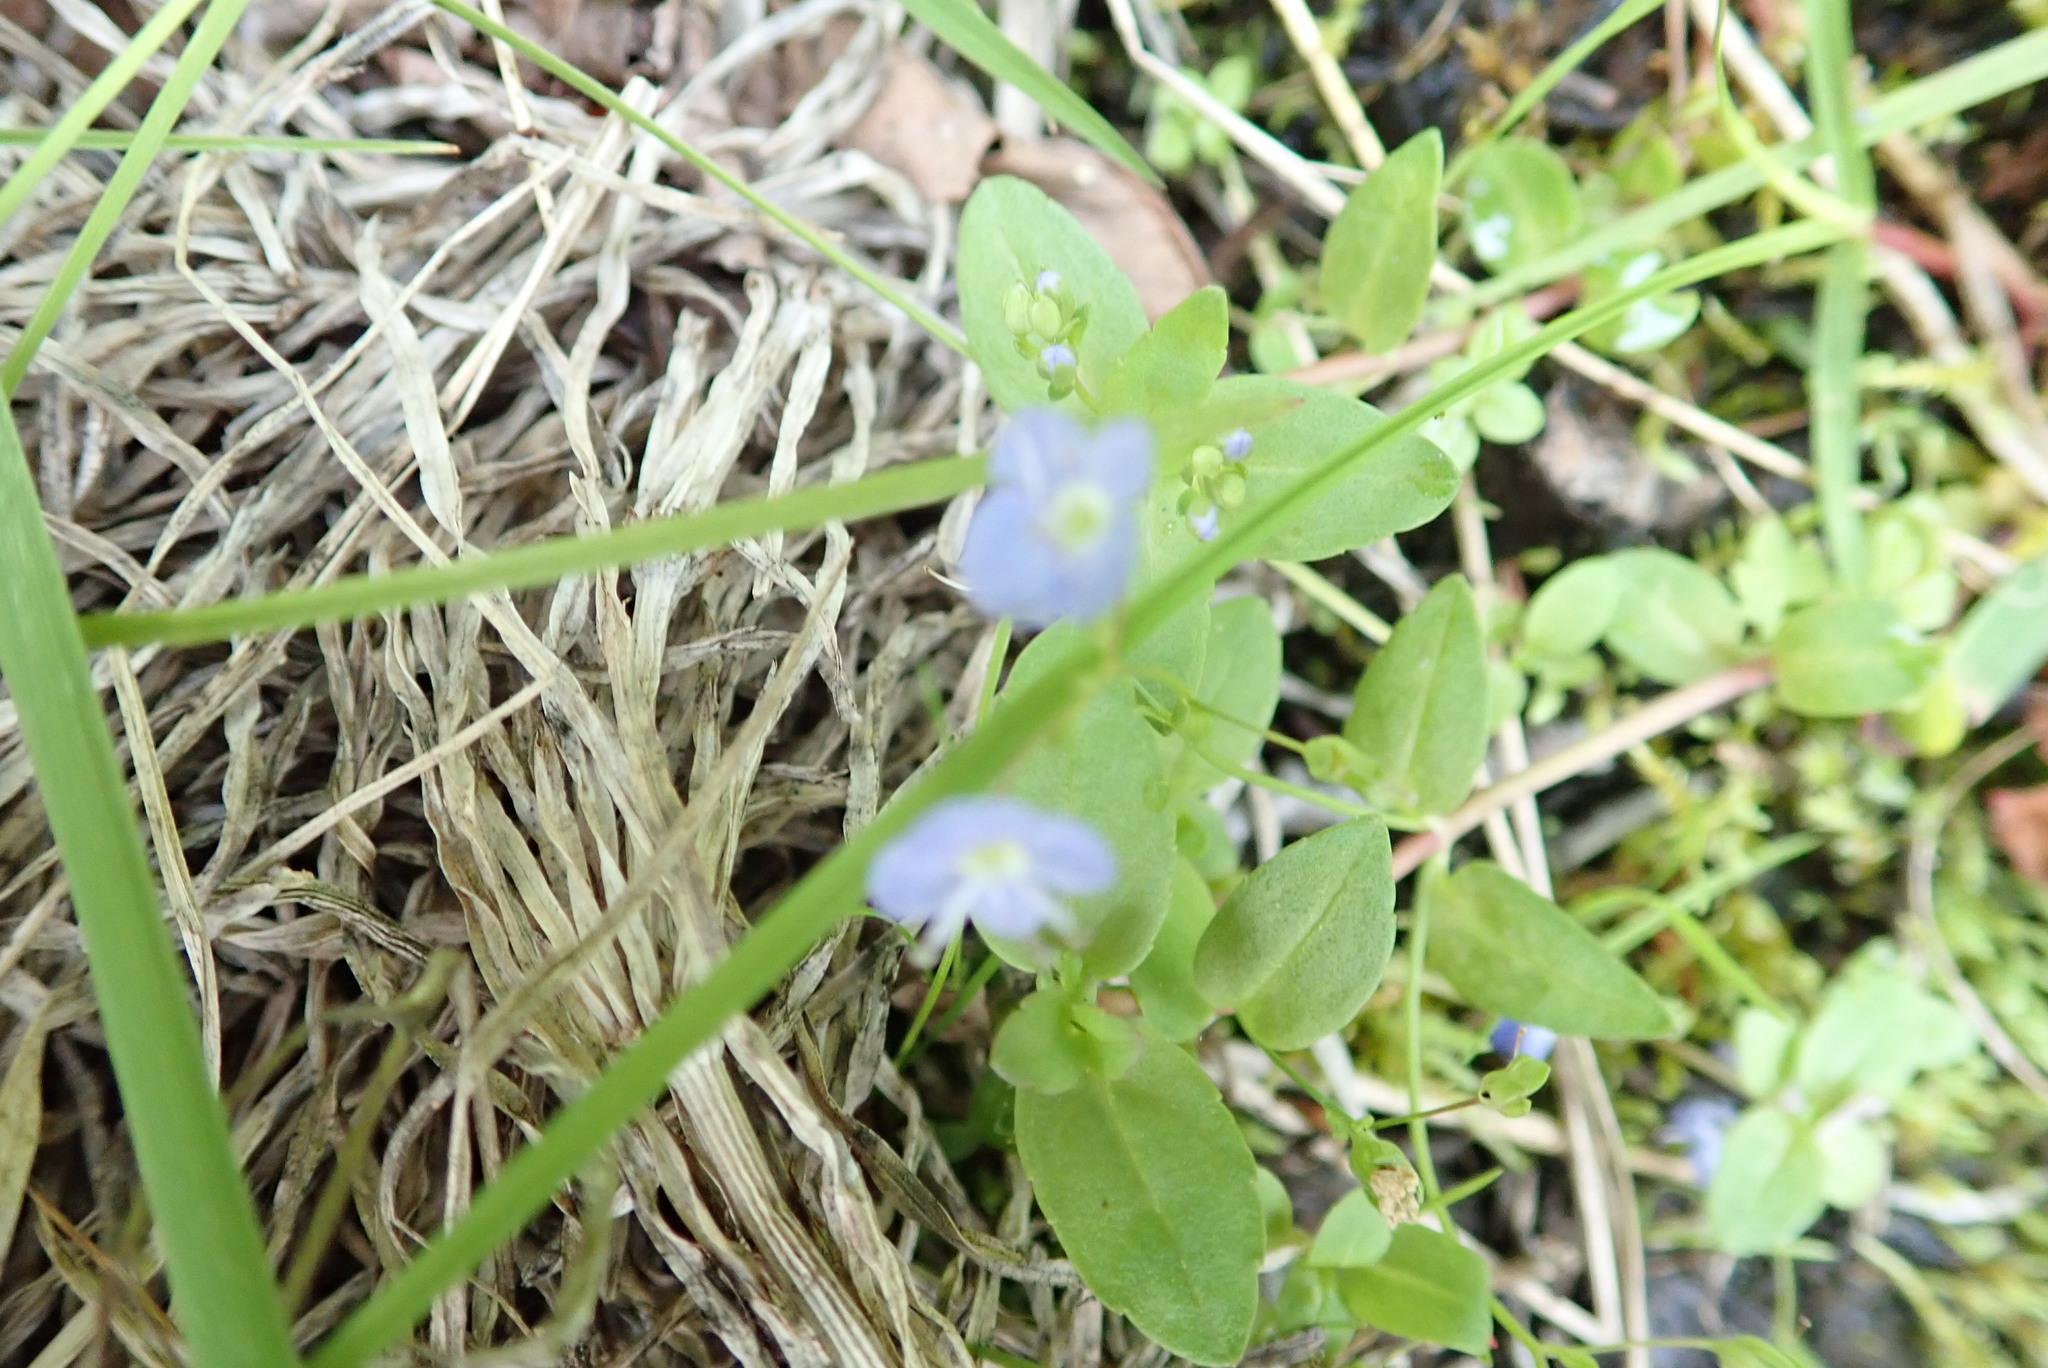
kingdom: Plantae
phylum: Tracheophyta
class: Magnoliopsida
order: Lamiales
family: Plantaginaceae
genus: Veronica
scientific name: Veronica americana
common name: American brooklime
